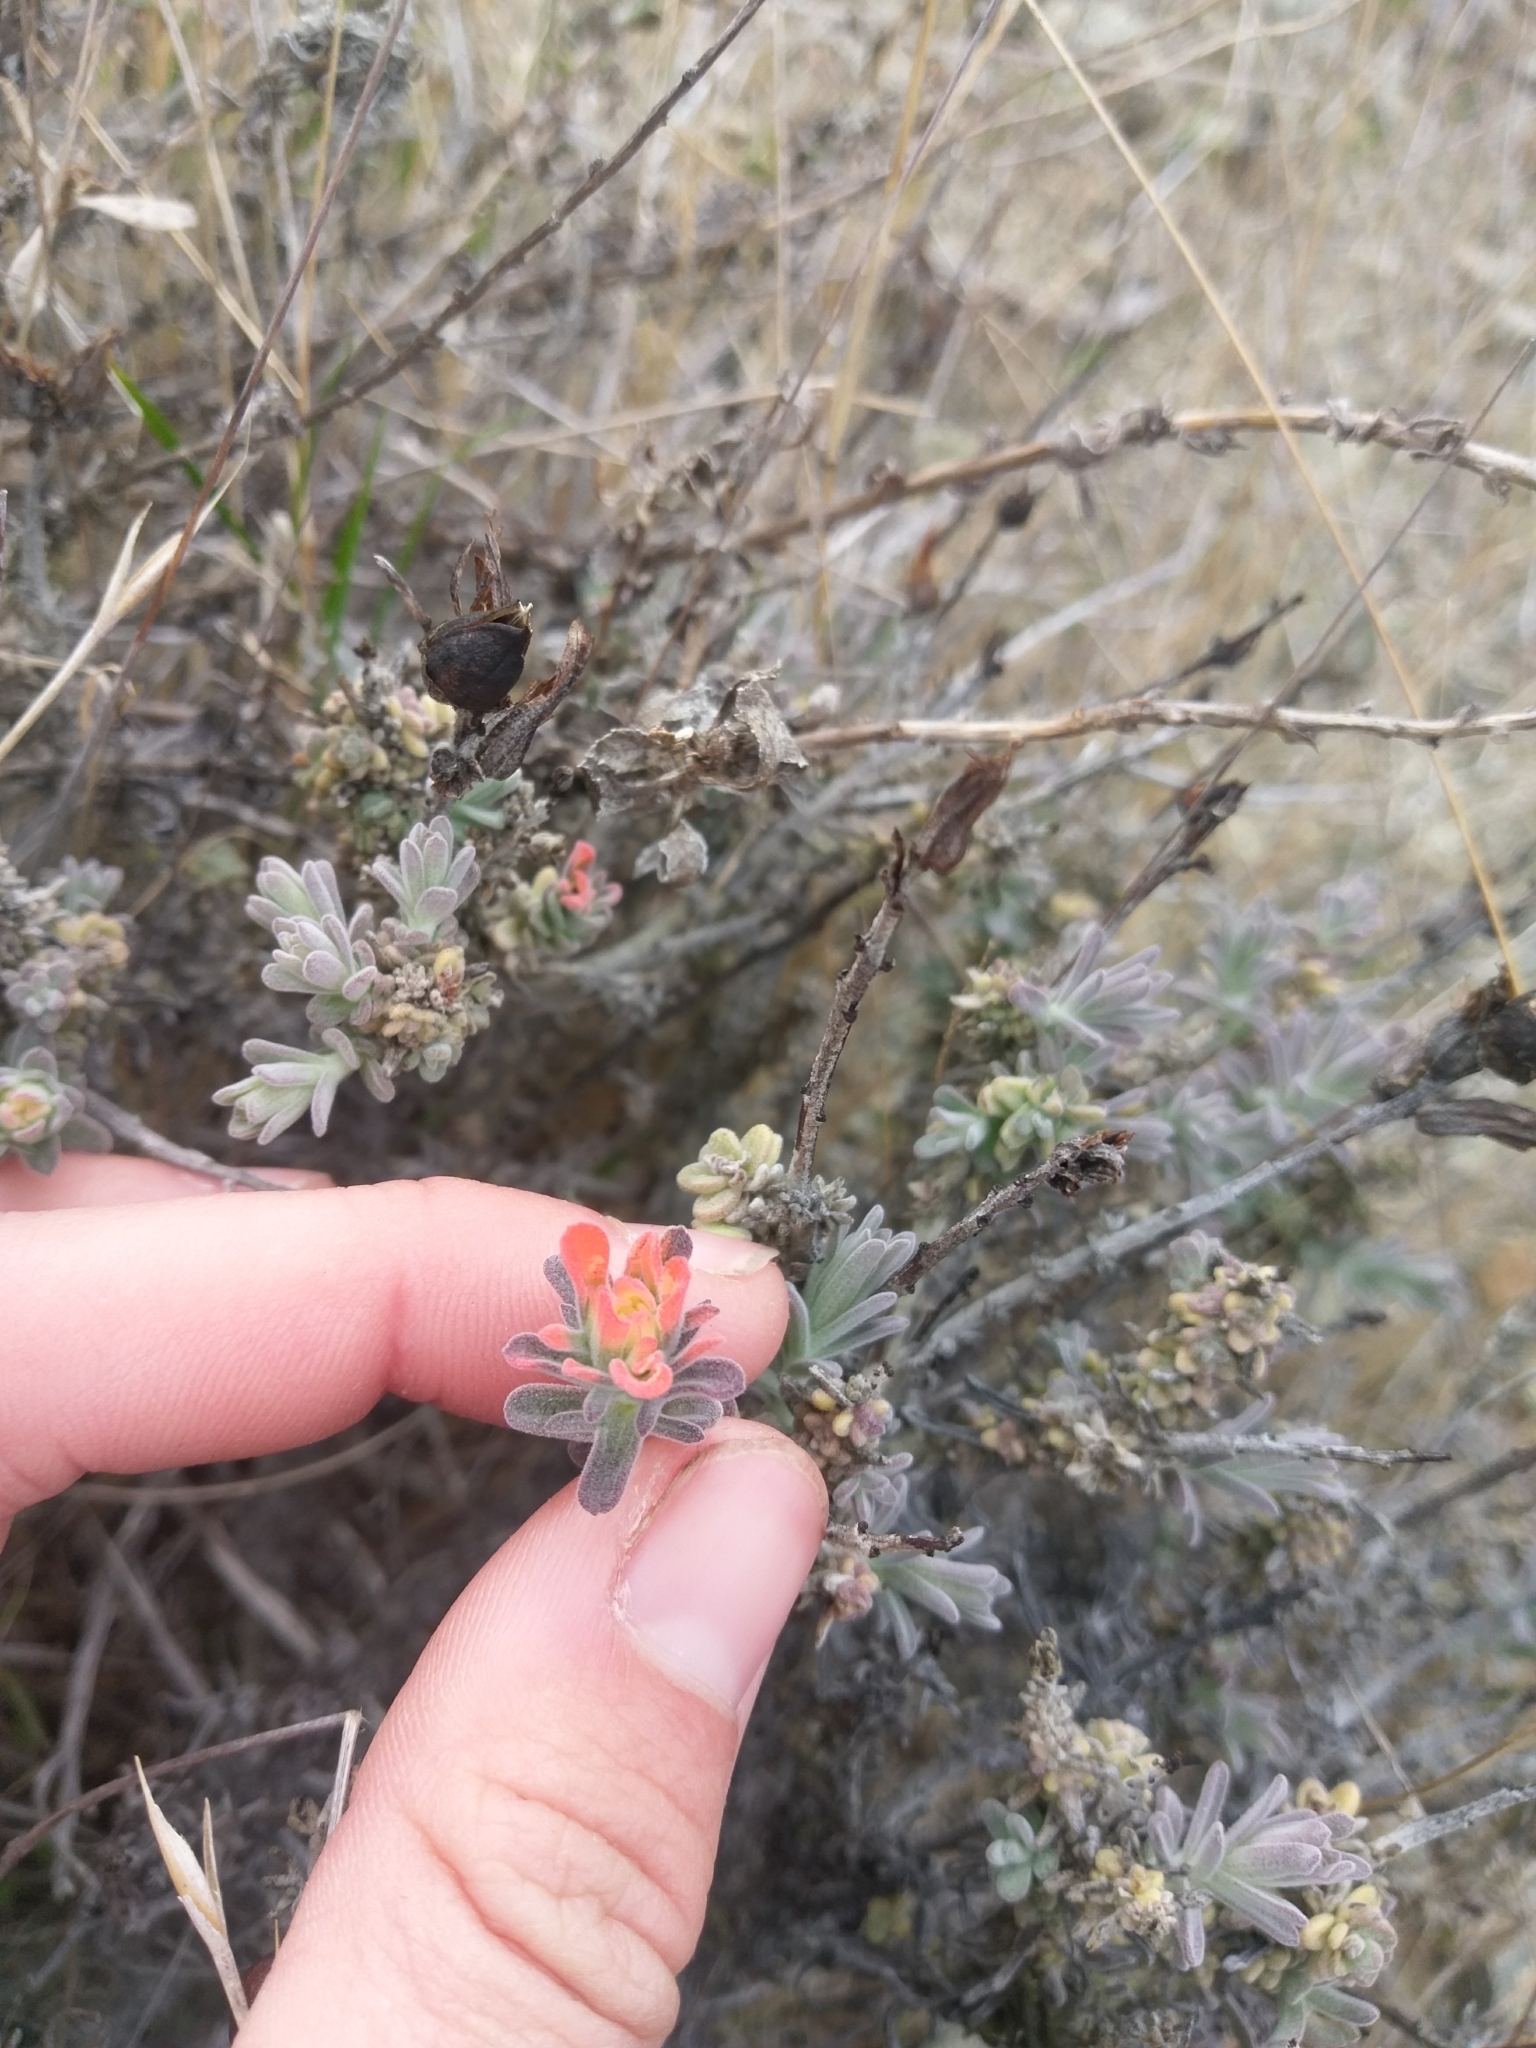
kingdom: Plantae
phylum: Tracheophyta
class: Magnoliopsida
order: Lamiales
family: Orobanchaceae
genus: Castilleja
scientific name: Castilleja foliolosa
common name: Woolly indian paintbrush
